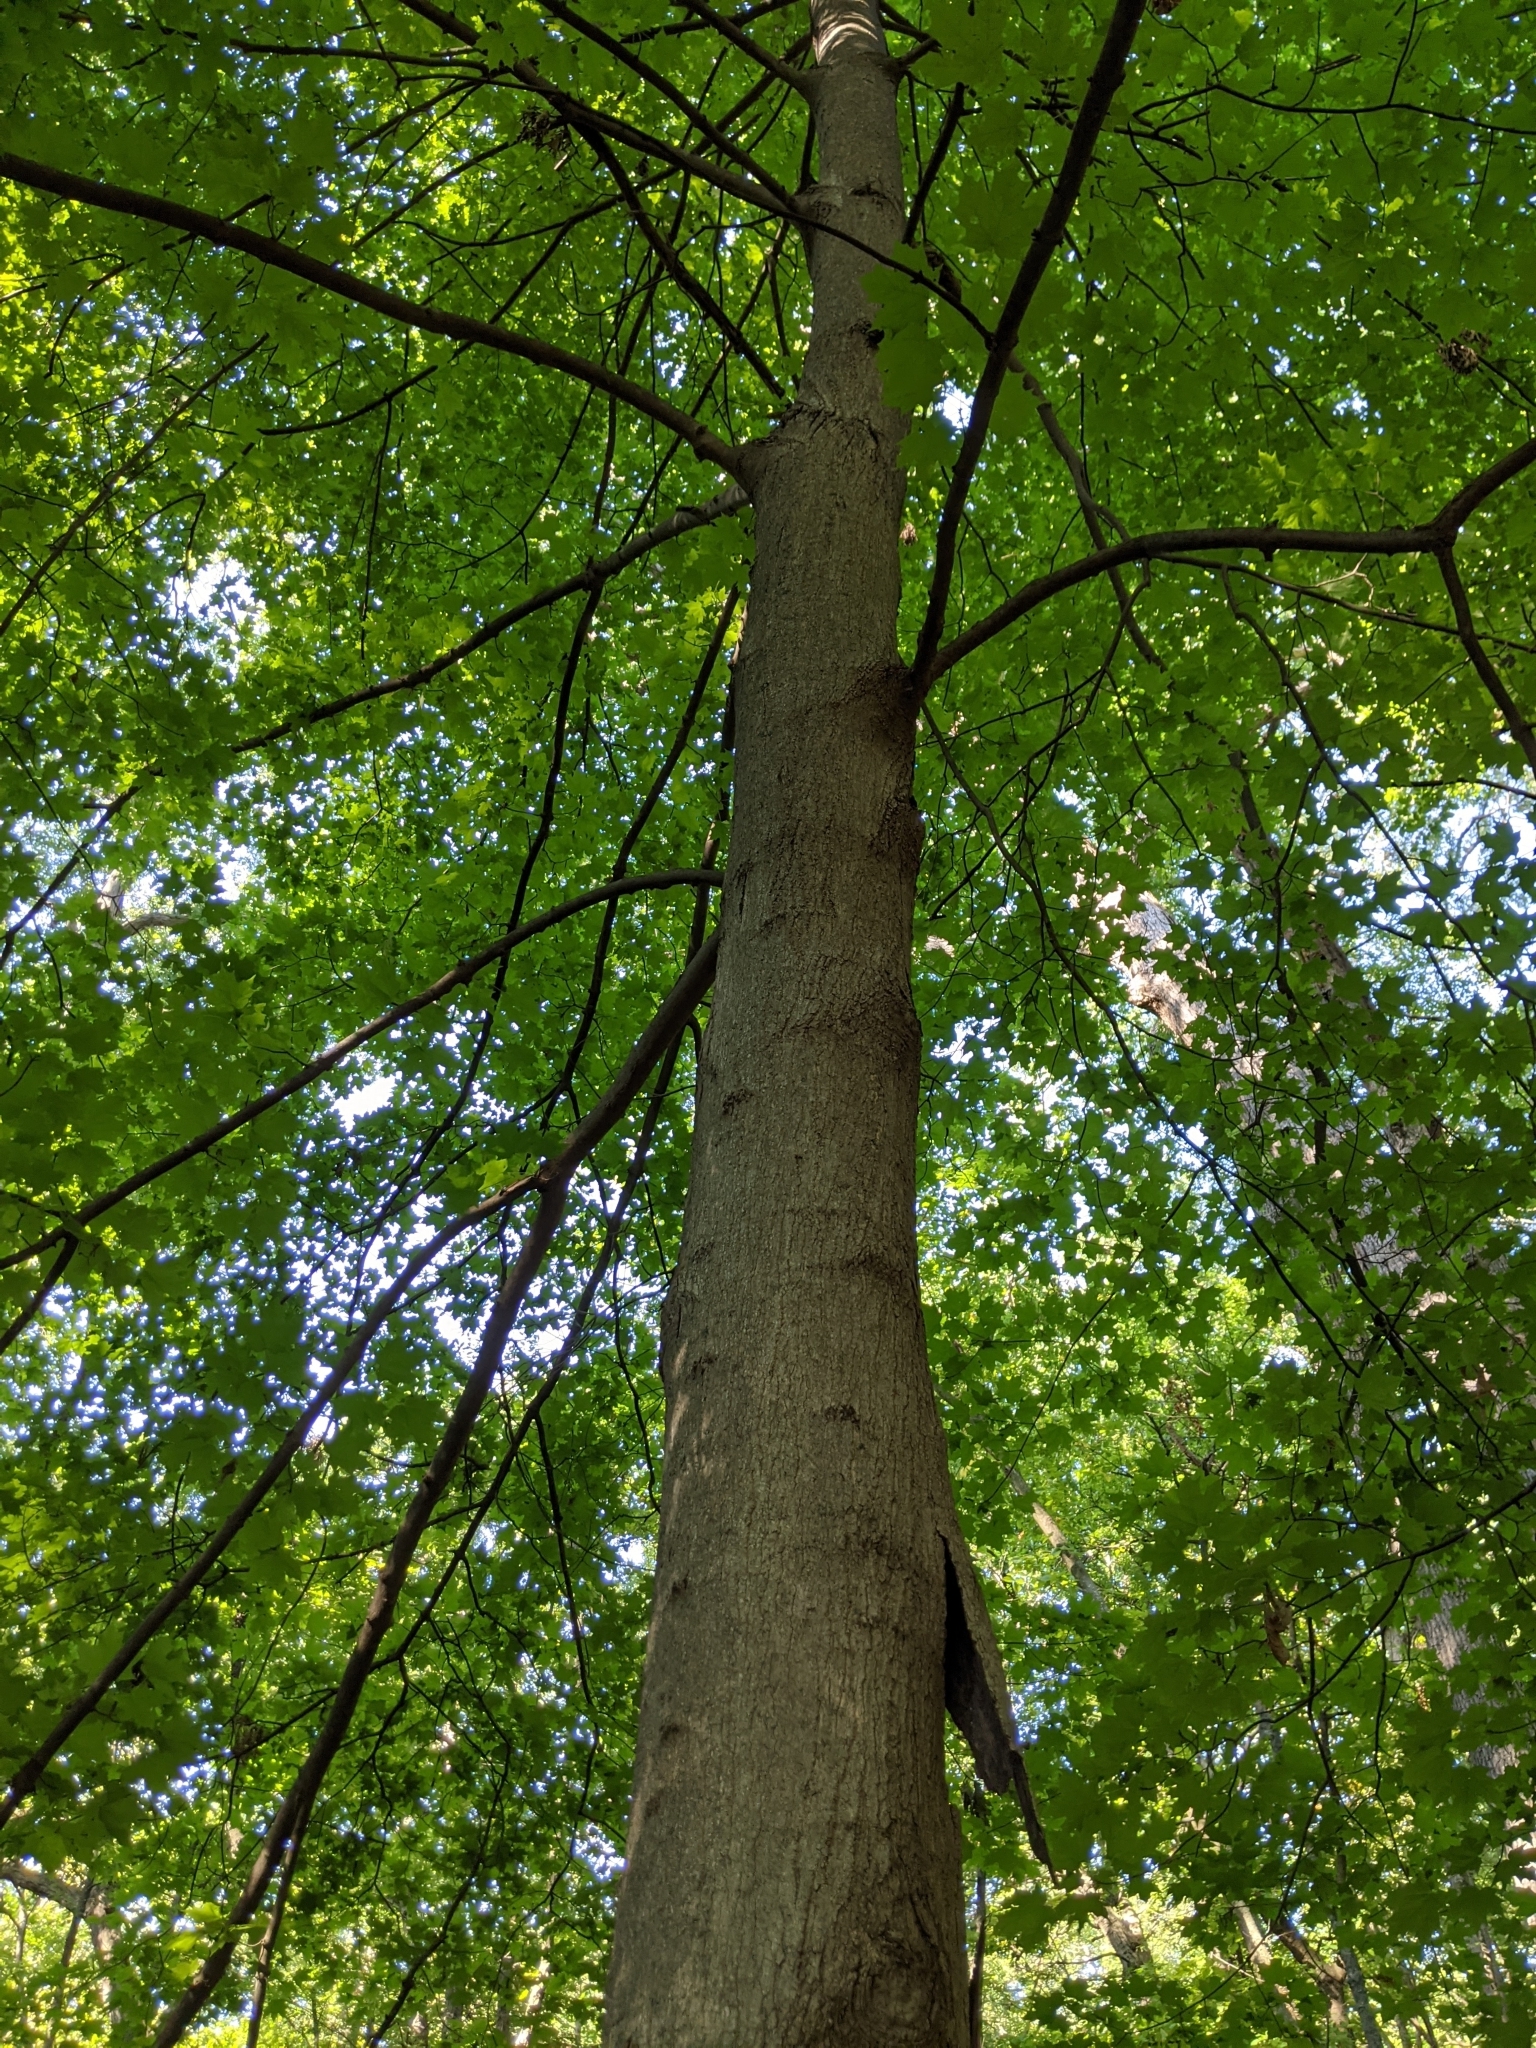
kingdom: Plantae
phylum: Tracheophyta
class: Magnoliopsida
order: Sapindales
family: Sapindaceae
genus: Acer
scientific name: Acer saccharum
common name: Sugar maple
